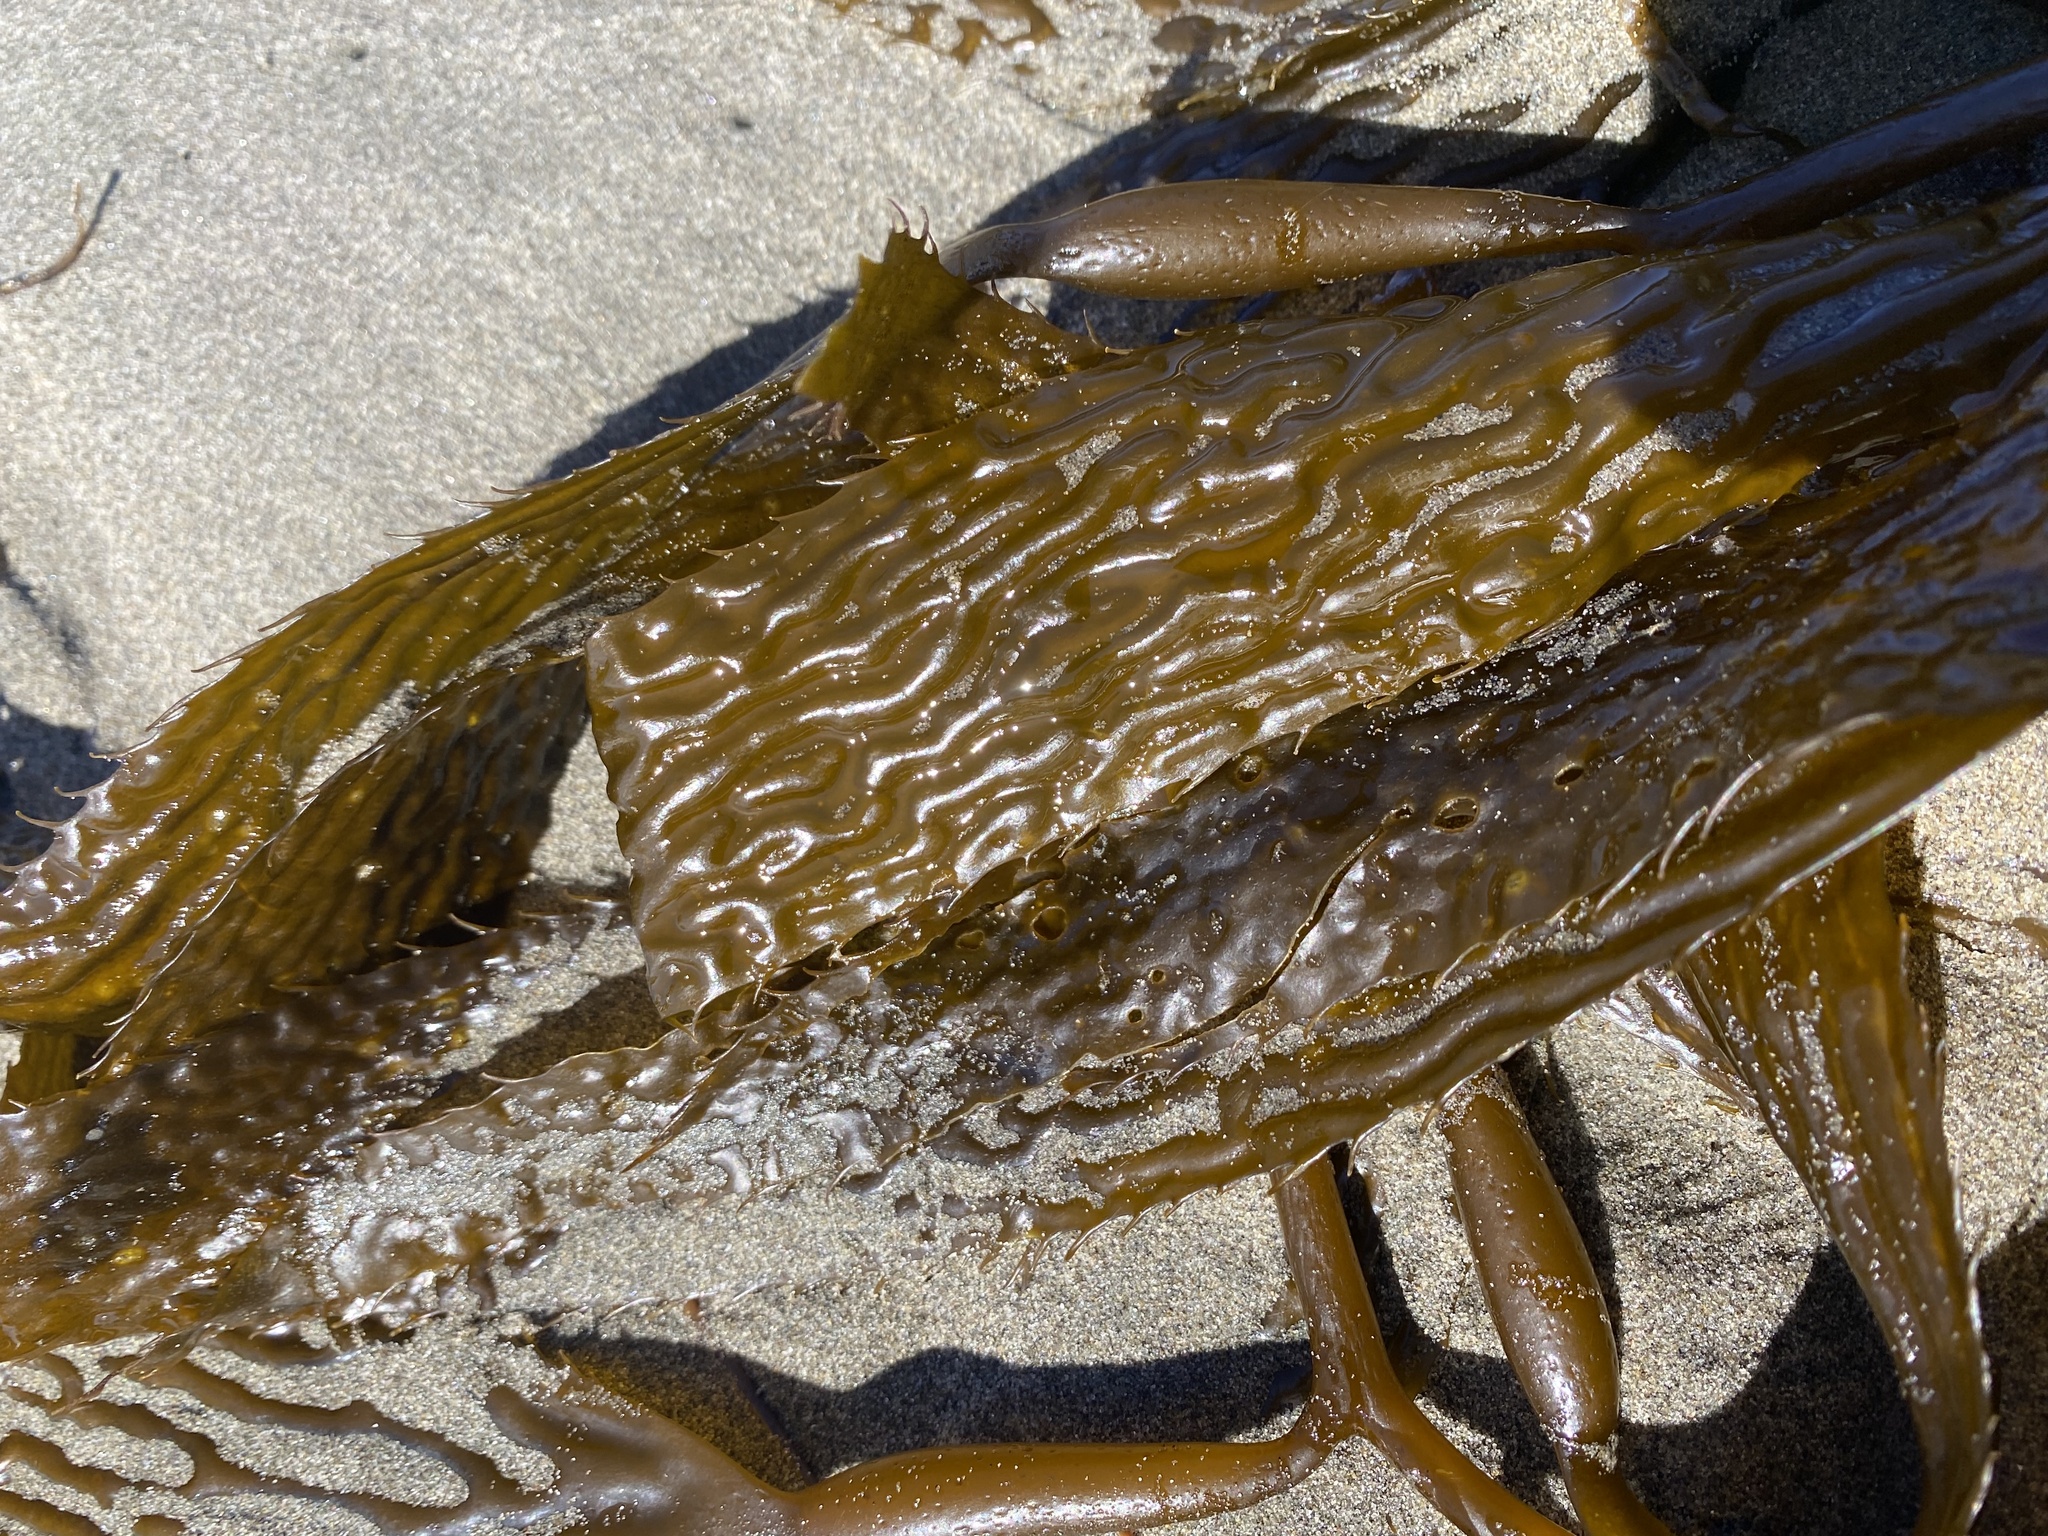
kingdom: Chromista
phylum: Ochrophyta
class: Phaeophyceae
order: Laminariales
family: Laminariaceae
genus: Macrocystis
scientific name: Macrocystis pyrifera
